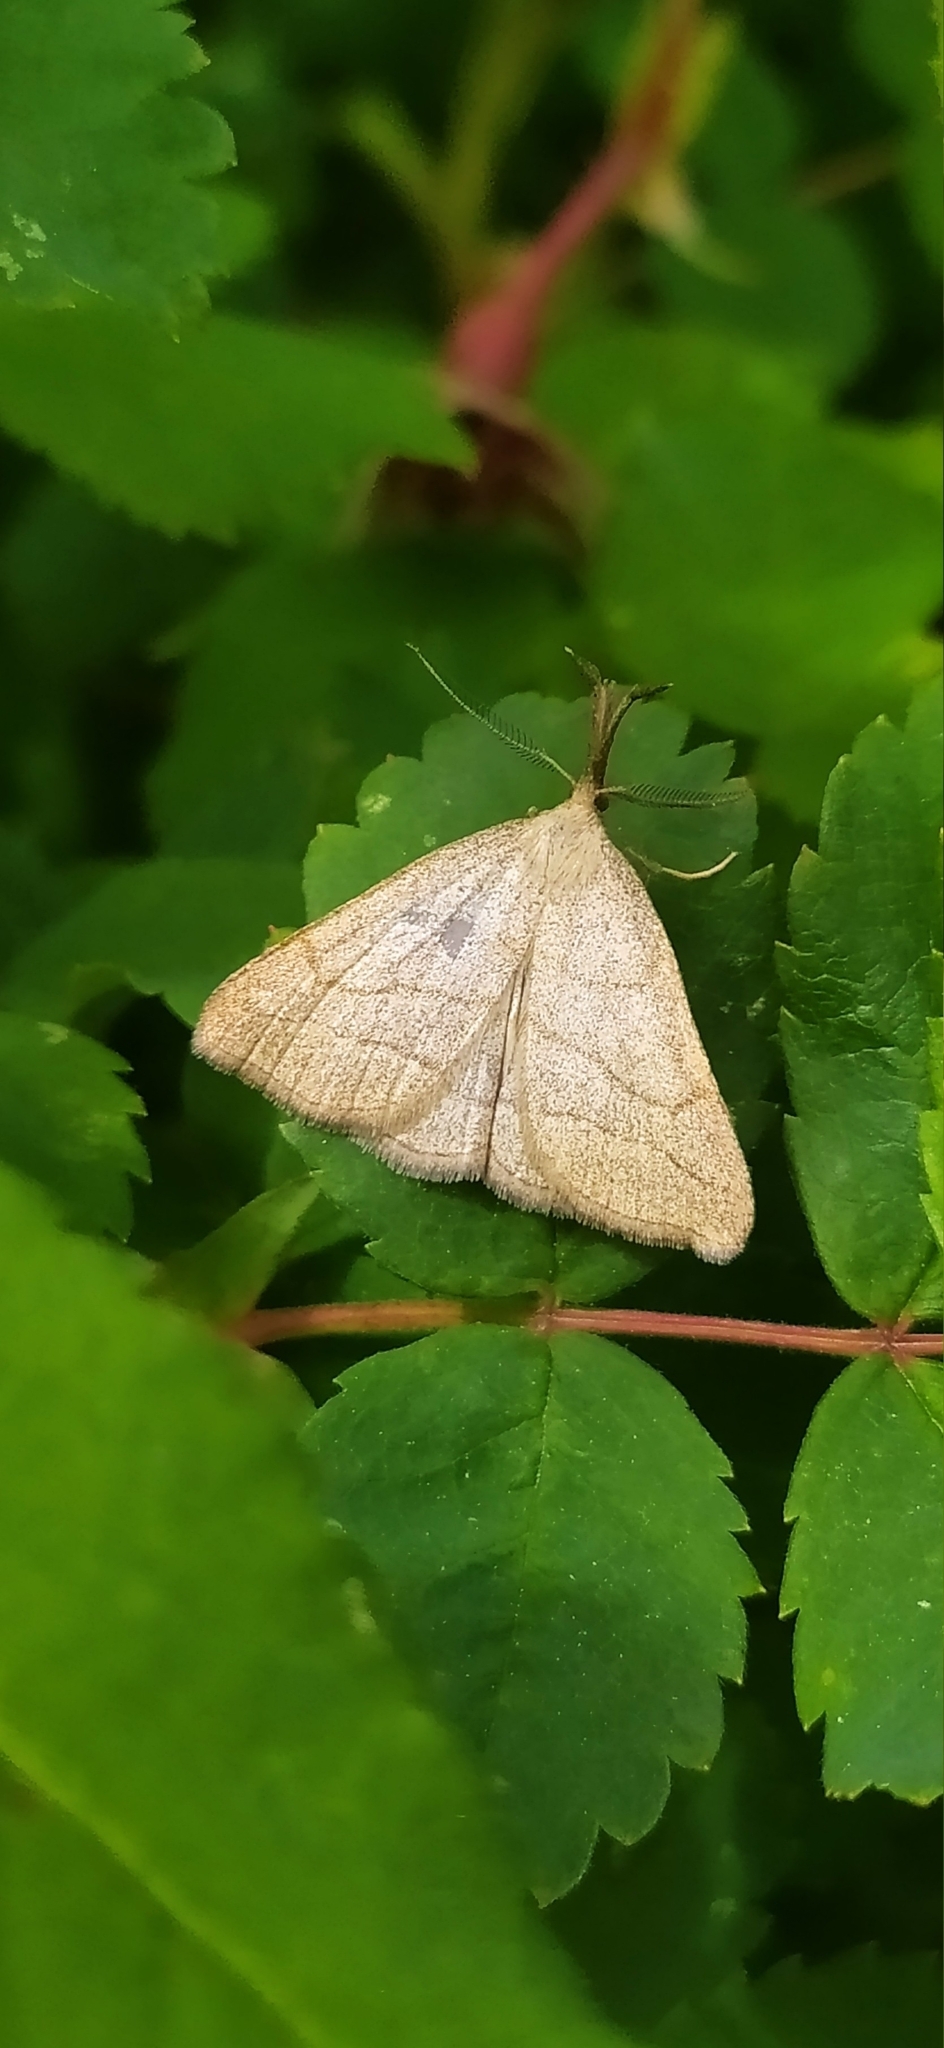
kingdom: Animalia
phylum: Arthropoda
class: Insecta
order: Lepidoptera
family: Erebidae
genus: Polypogon
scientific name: Polypogon tentacularia
